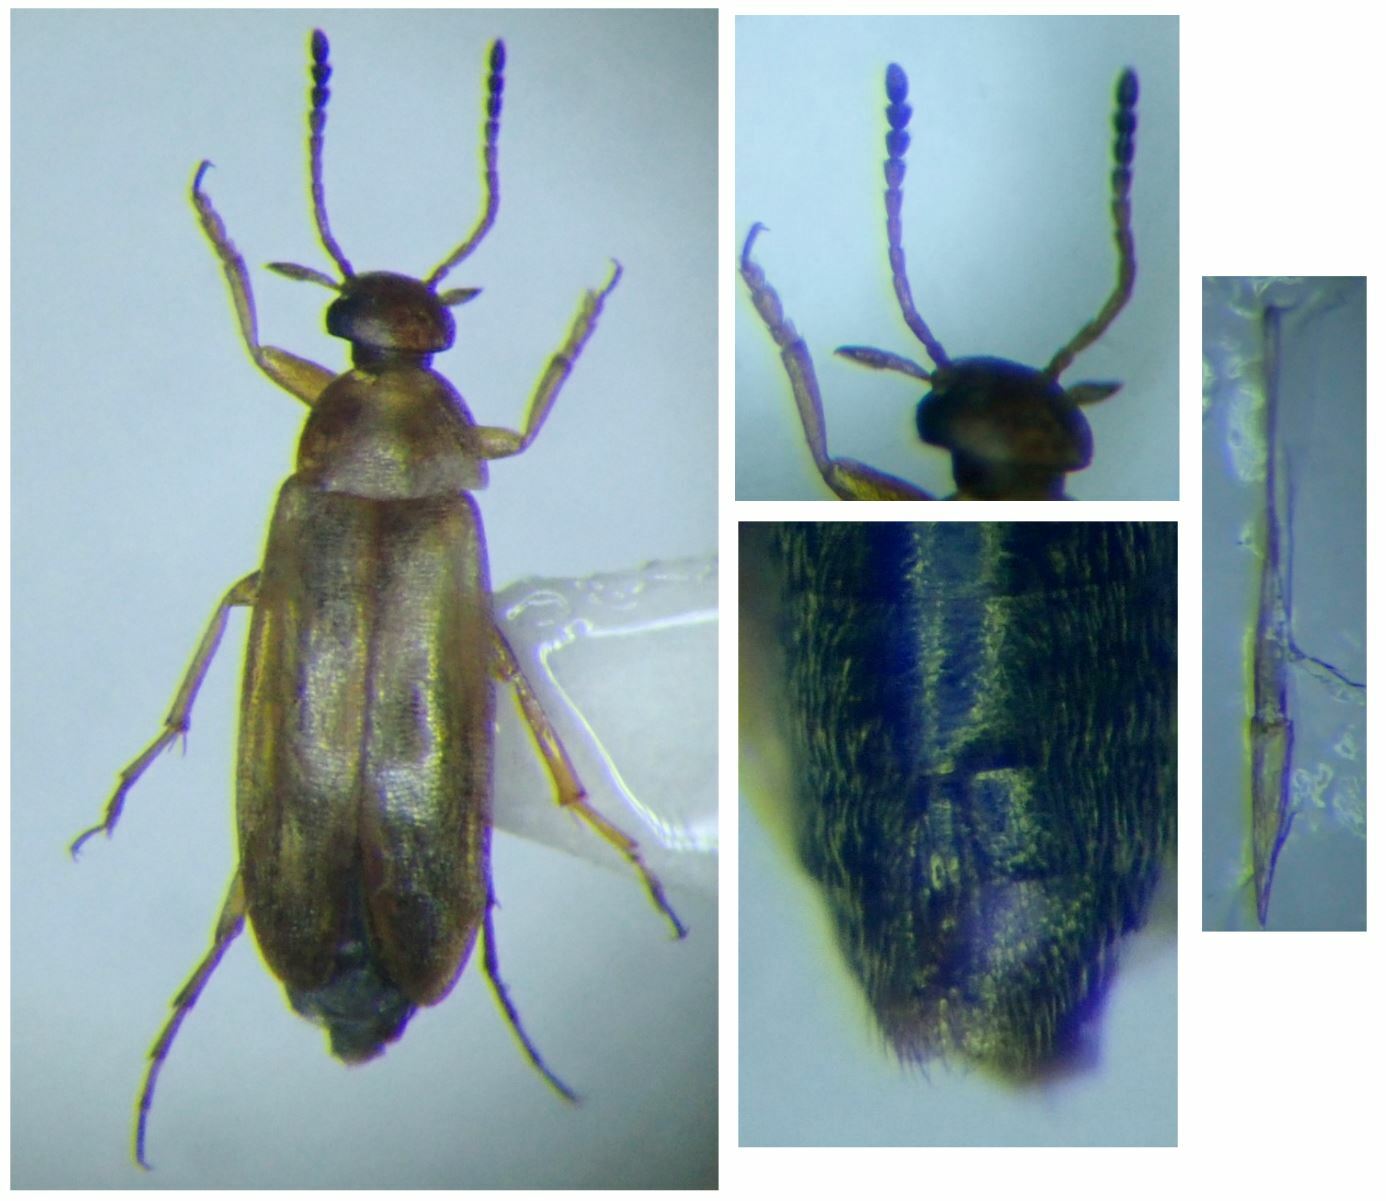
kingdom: Animalia
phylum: Arthropoda
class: Insecta
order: Coleoptera
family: Scraptiidae
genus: Anaspis
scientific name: Anaspis maculata
